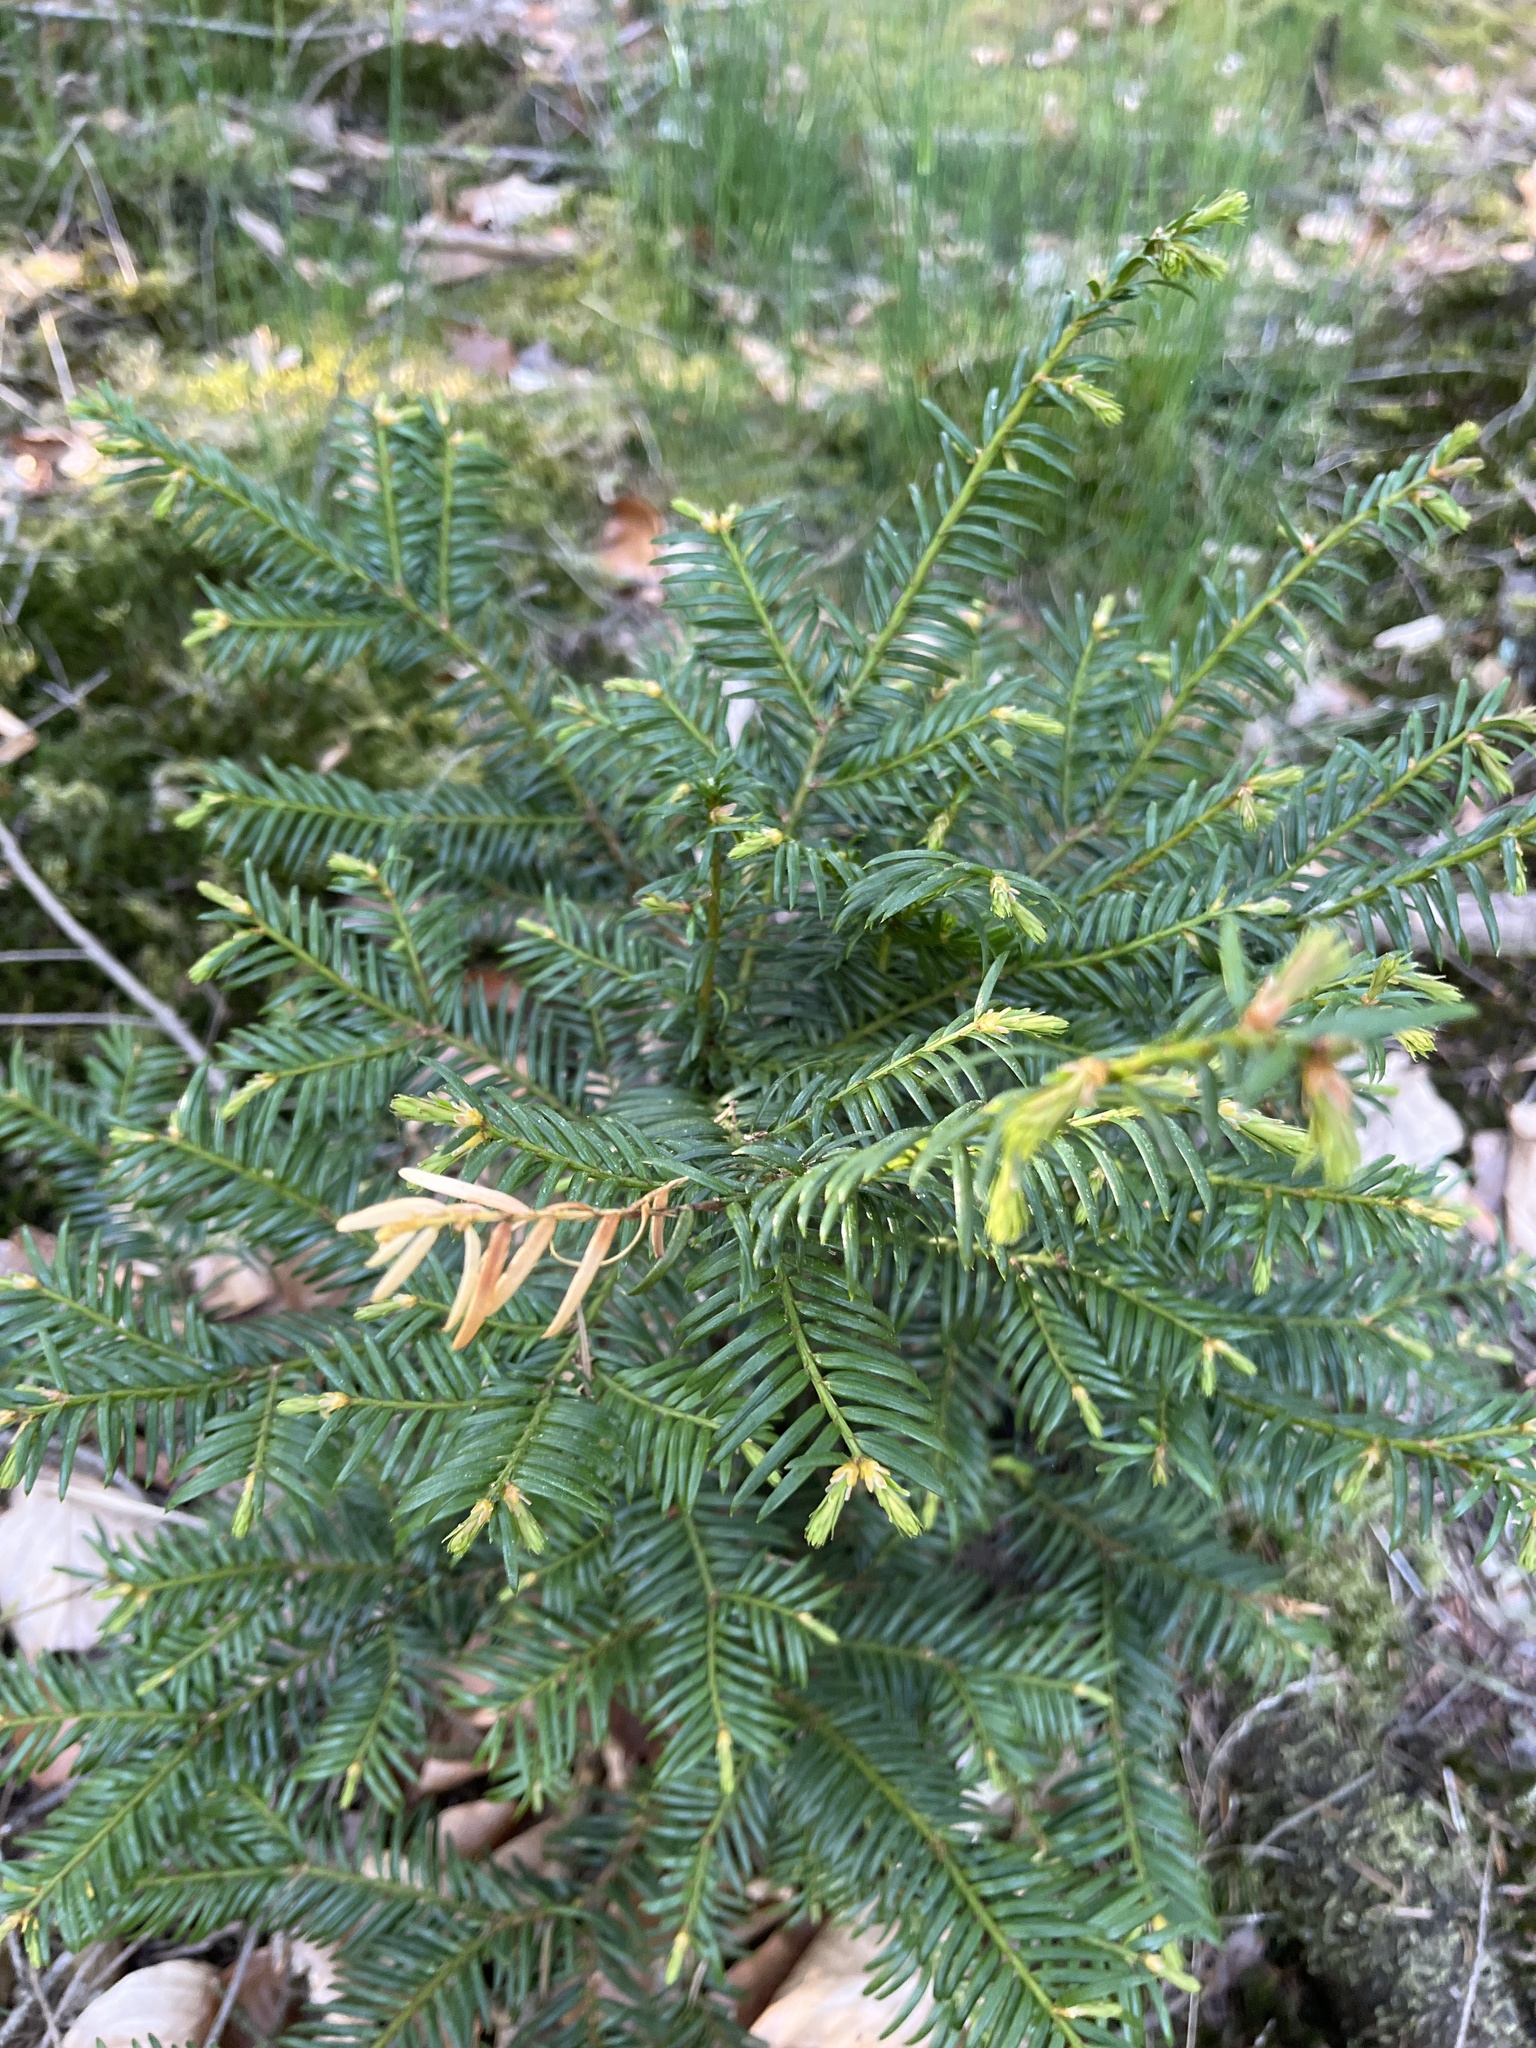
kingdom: Plantae
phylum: Tracheophyta
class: Pinopsida
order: Pinales
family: Taxaceae
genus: Taxus
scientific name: Taxus baccata
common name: Yew
